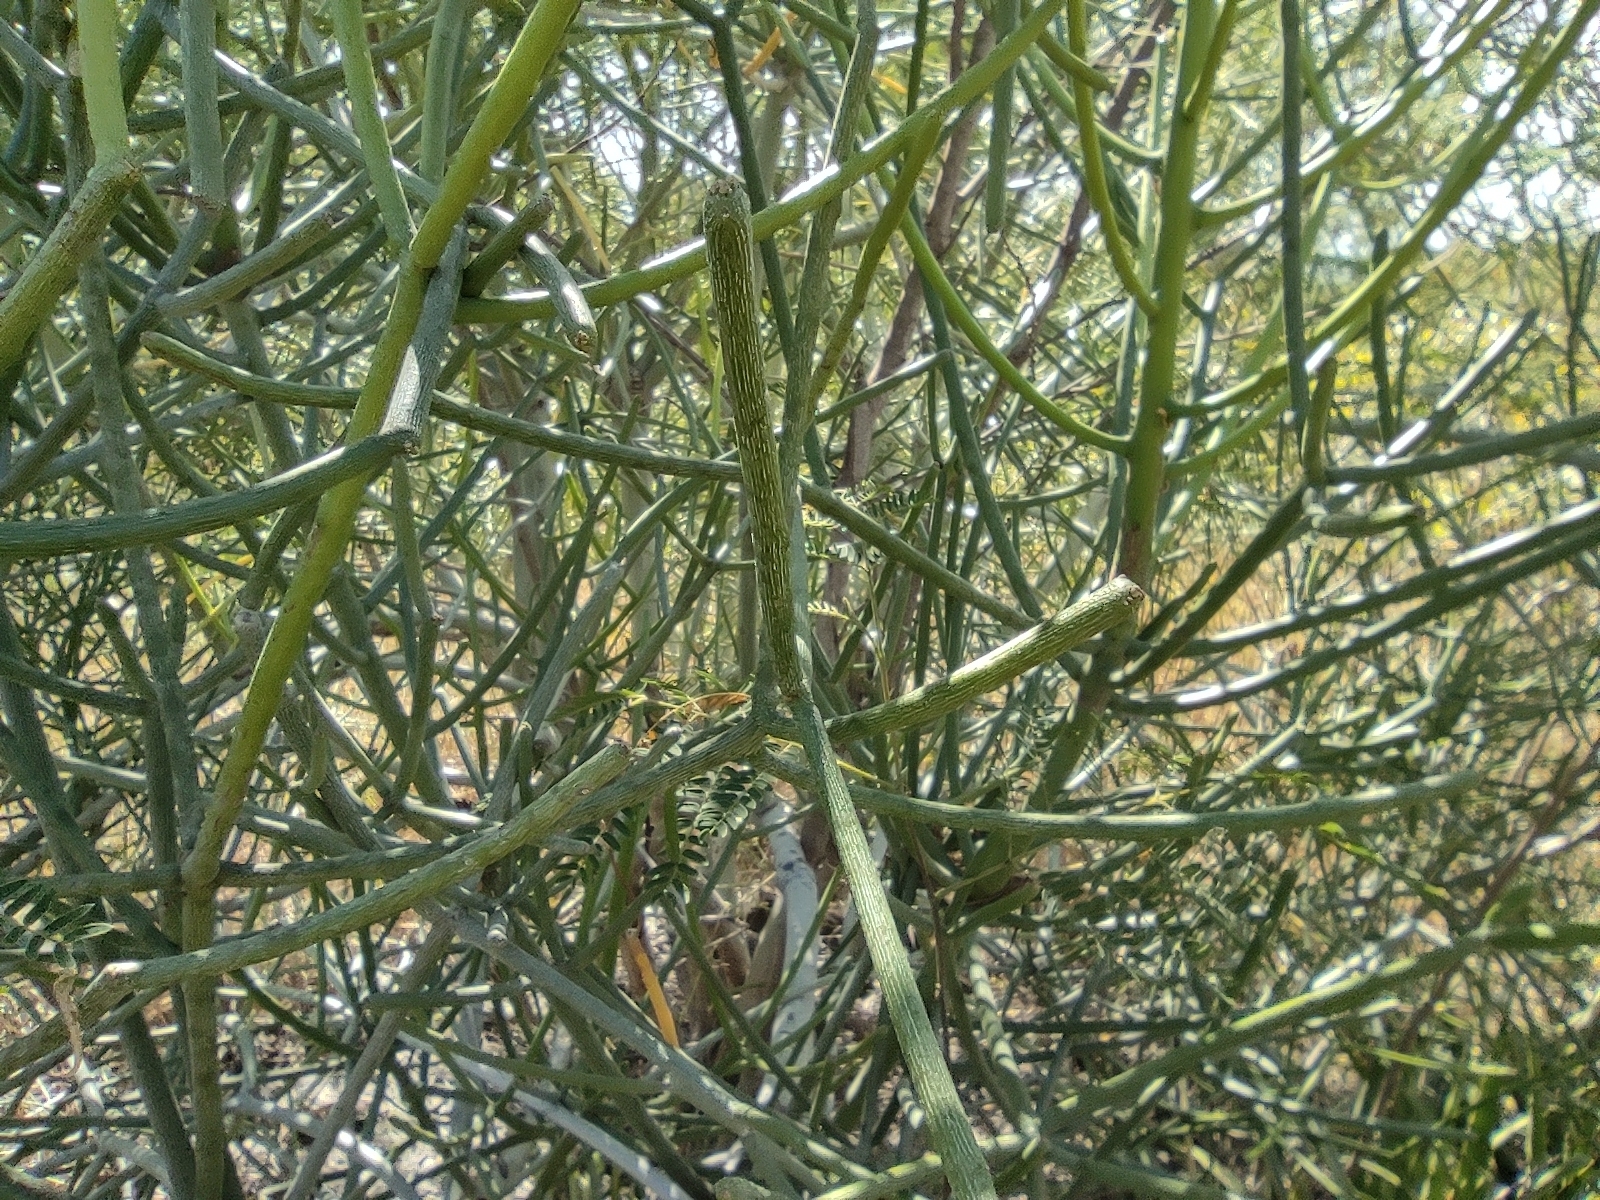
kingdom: Plantae
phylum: Tracheophyta
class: Magnoliopsida
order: Malpighiales
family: Euphorbiaceae
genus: Euphorbia
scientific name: Euphorbia tirucalli
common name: Indiantree spurge
